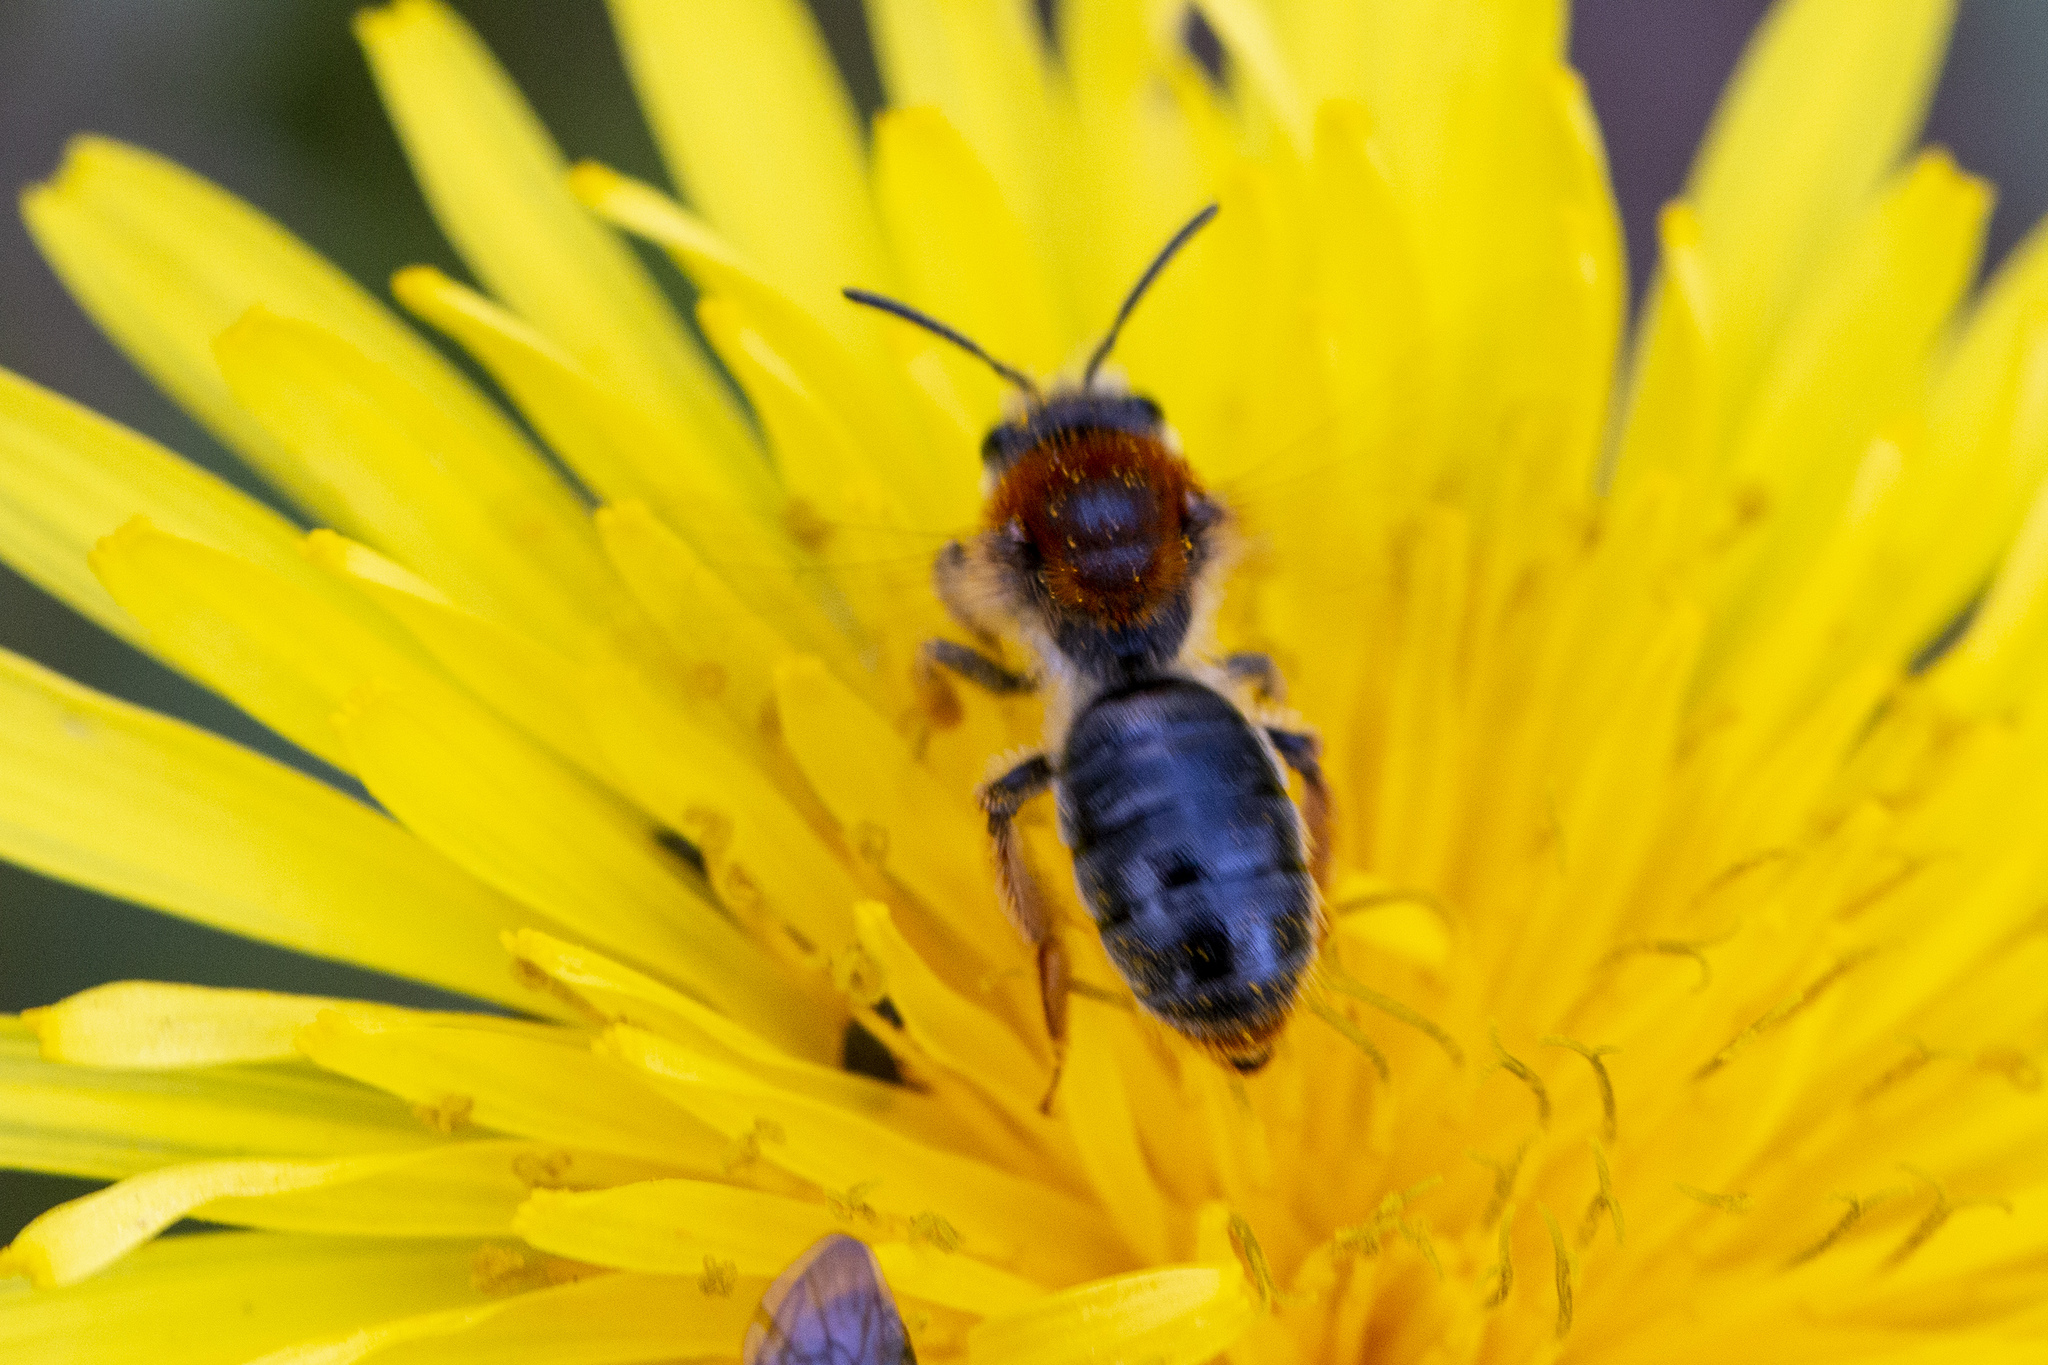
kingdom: Animalia
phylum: Arthropoda
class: Insecta
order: Hymenoptera
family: Andrenidae
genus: Andrena
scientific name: Andrena haemorrhoa
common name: Early mining bee
